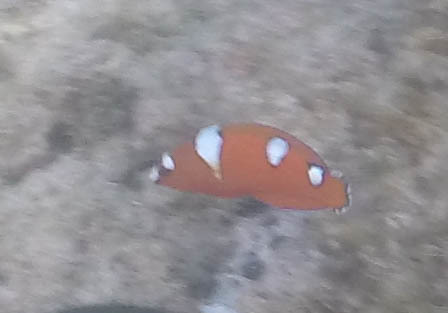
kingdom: Animalia
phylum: Chordata
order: Perciformes
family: Labridae
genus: Coris
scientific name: Coris gaimard
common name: Yellowtail coris
